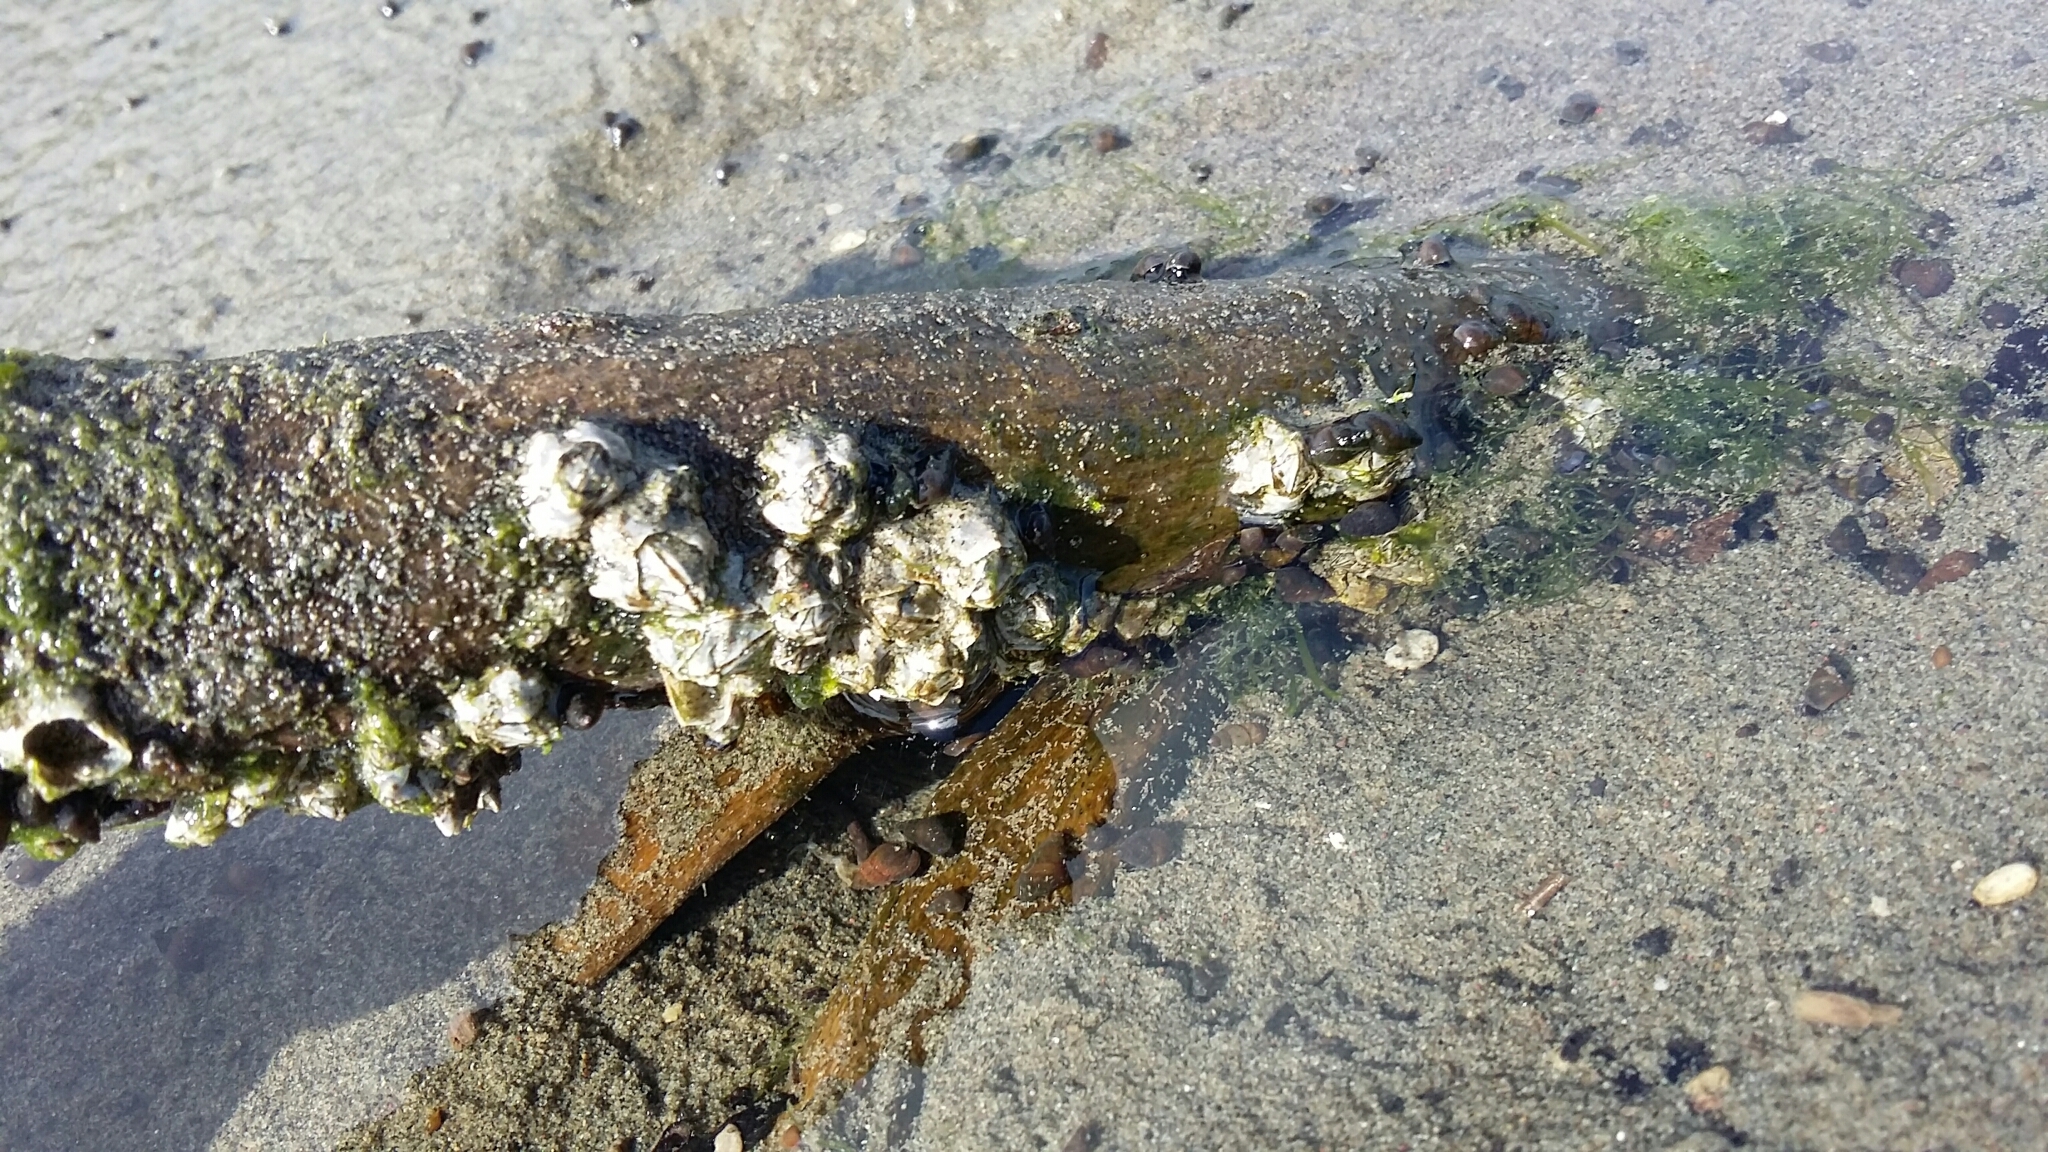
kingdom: Animalia
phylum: Arthropoda
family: Elminiidae
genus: Austrominius
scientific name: Austrominius modestus
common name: Australasian barnacle
